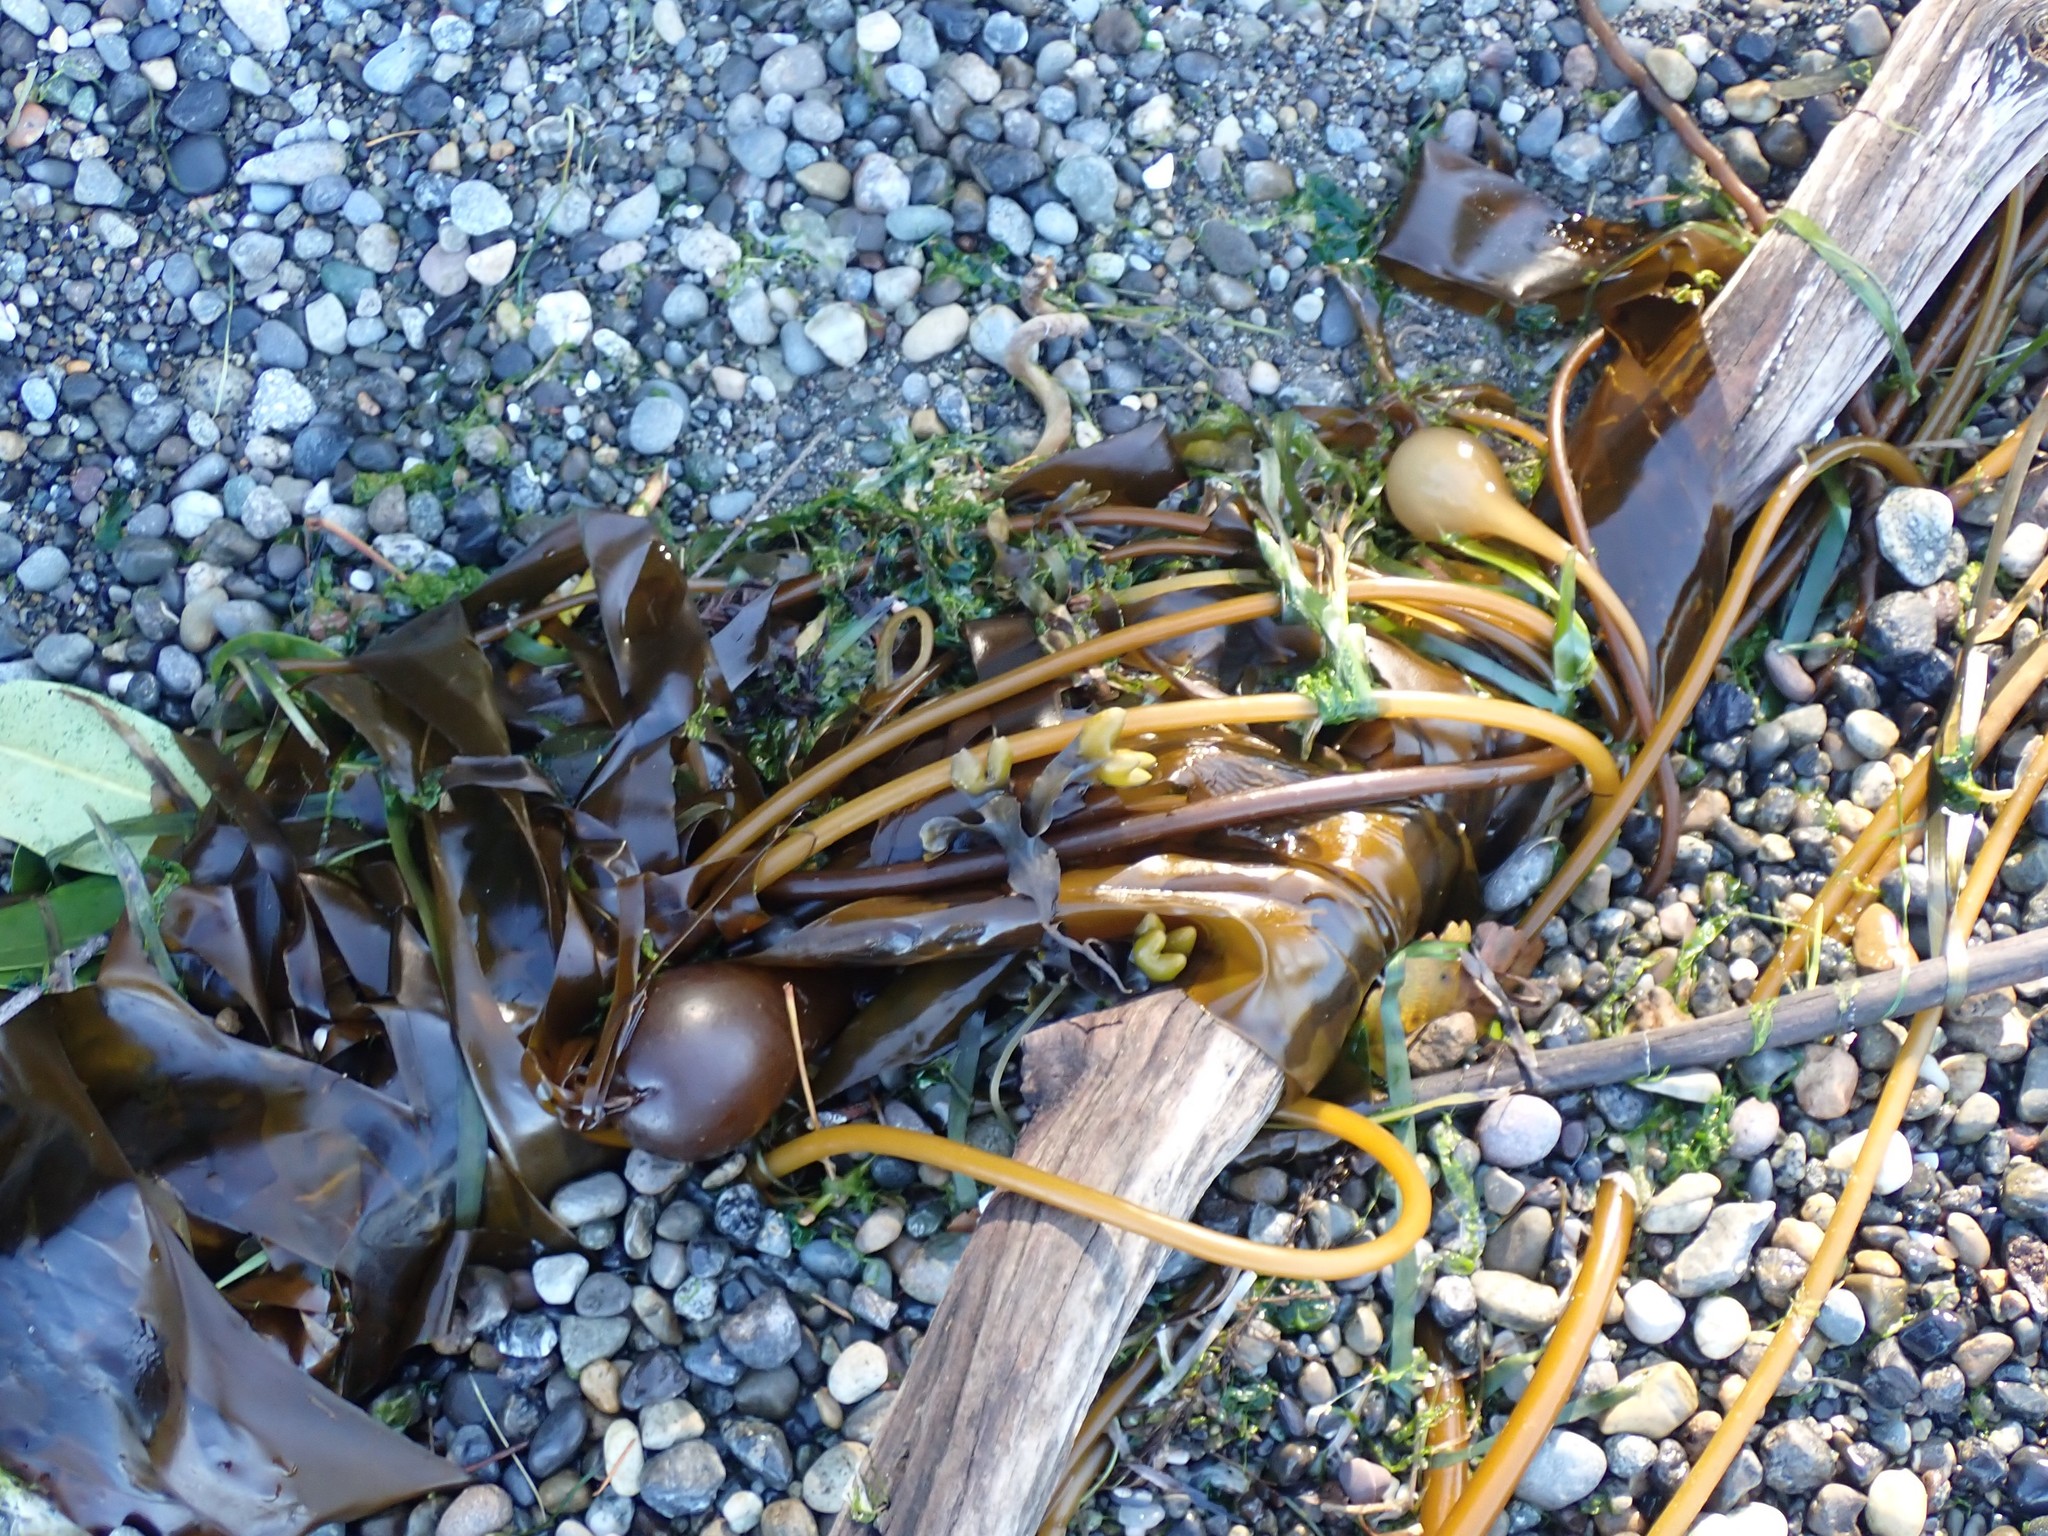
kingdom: Chromista
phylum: Ochrophyta
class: Phaeophyceae
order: Laminariales
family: Laminariaceae
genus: Nereocystis
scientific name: Nereocystis luetkeana
